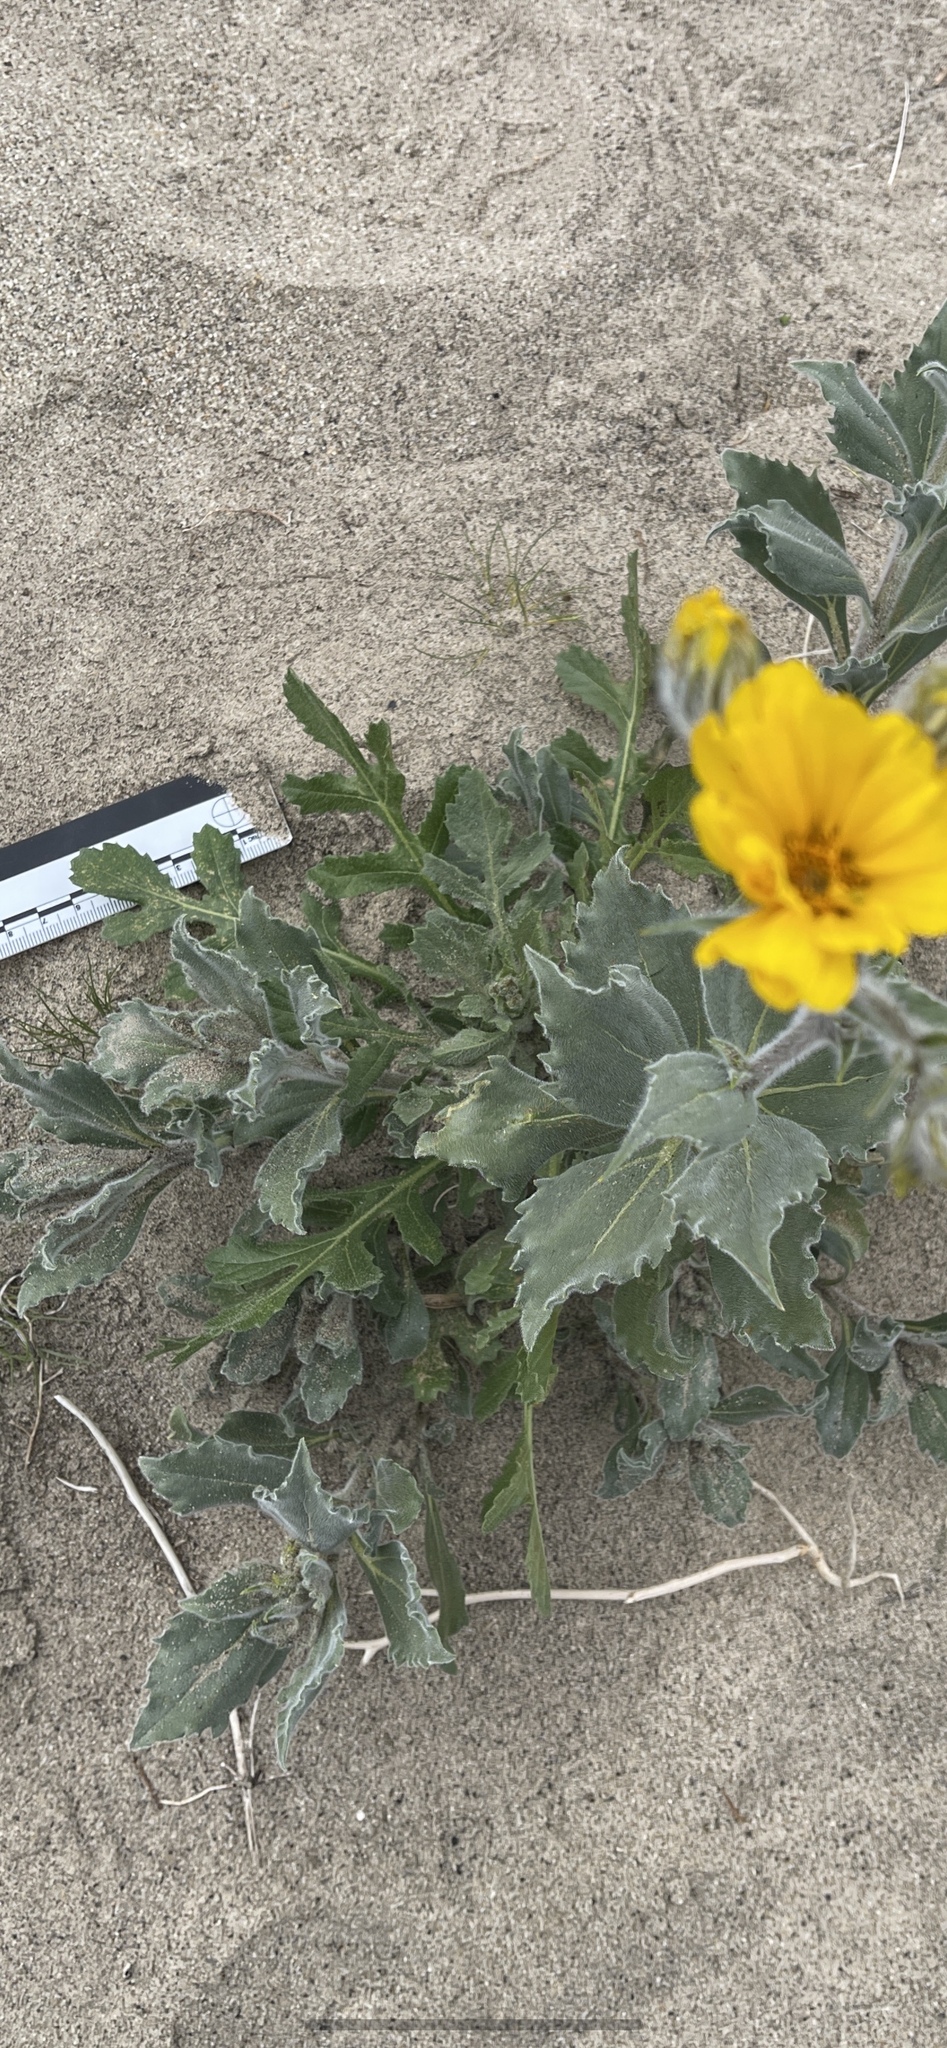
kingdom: Plantae
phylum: Tracheophyta
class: Magnoliopsida
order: Asterales
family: Asteraceae
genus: Volutaria
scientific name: Volutaria tubuliflora
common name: Desert knapweed
